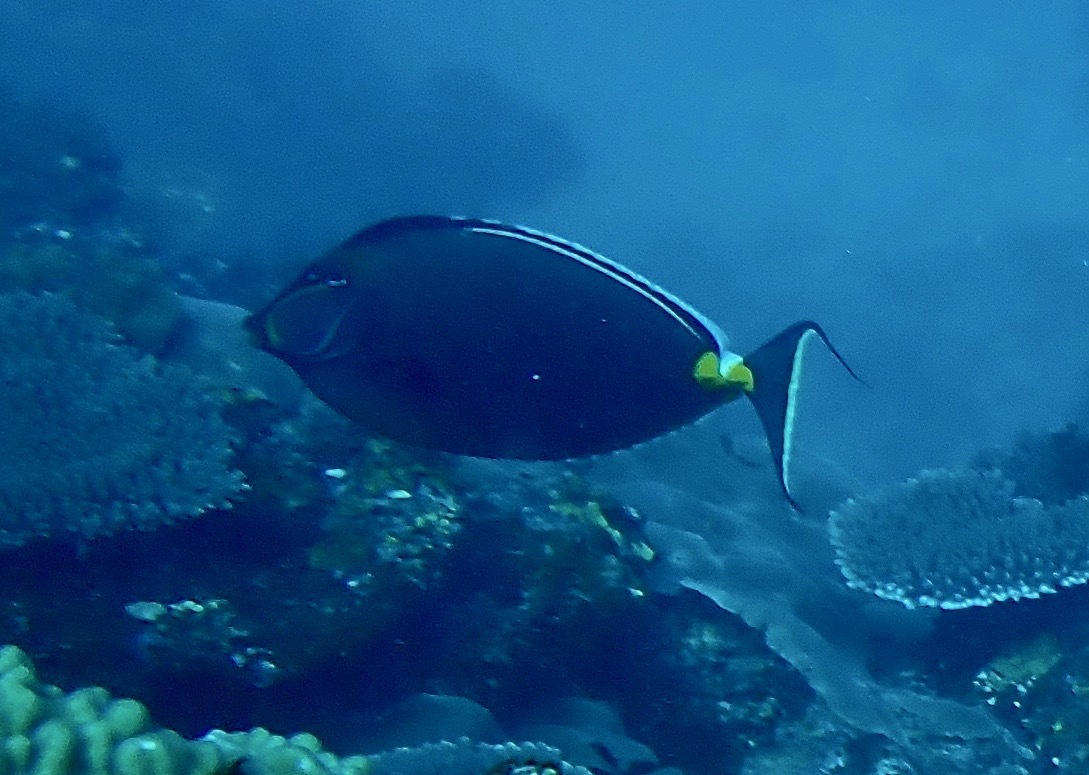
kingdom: Animalia
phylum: Chordata
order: Perciformes
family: Acanthuridae
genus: Naso
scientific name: Naso lituratus
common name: Orangespine unicornfish
